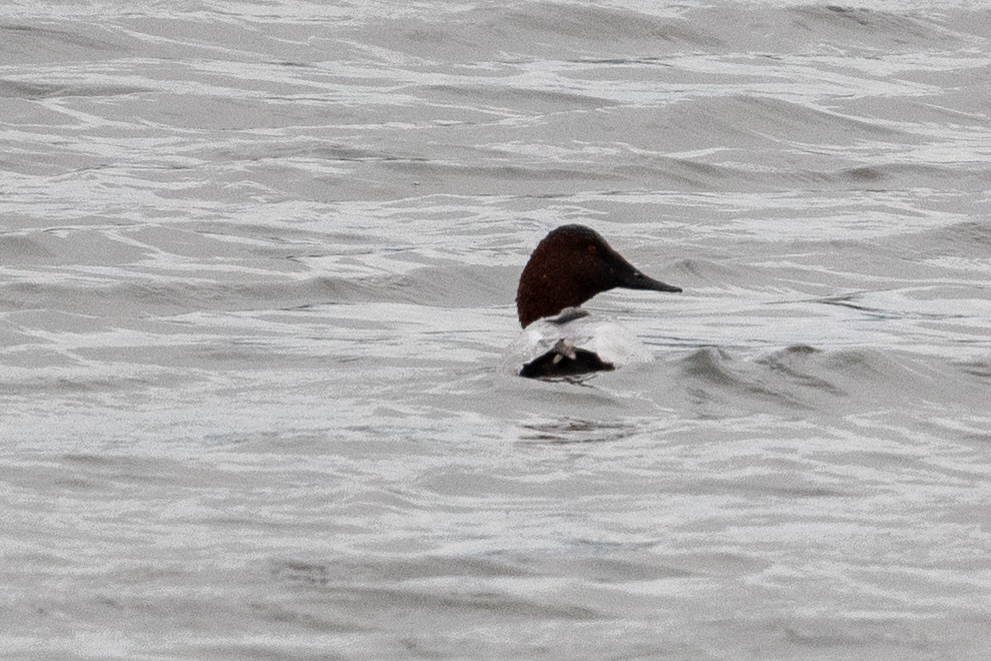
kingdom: Animalia
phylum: Chordata
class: Aves
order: Anseriformes
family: Anatidae
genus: Aythya
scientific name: Aythya valisineria
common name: Canvasback
